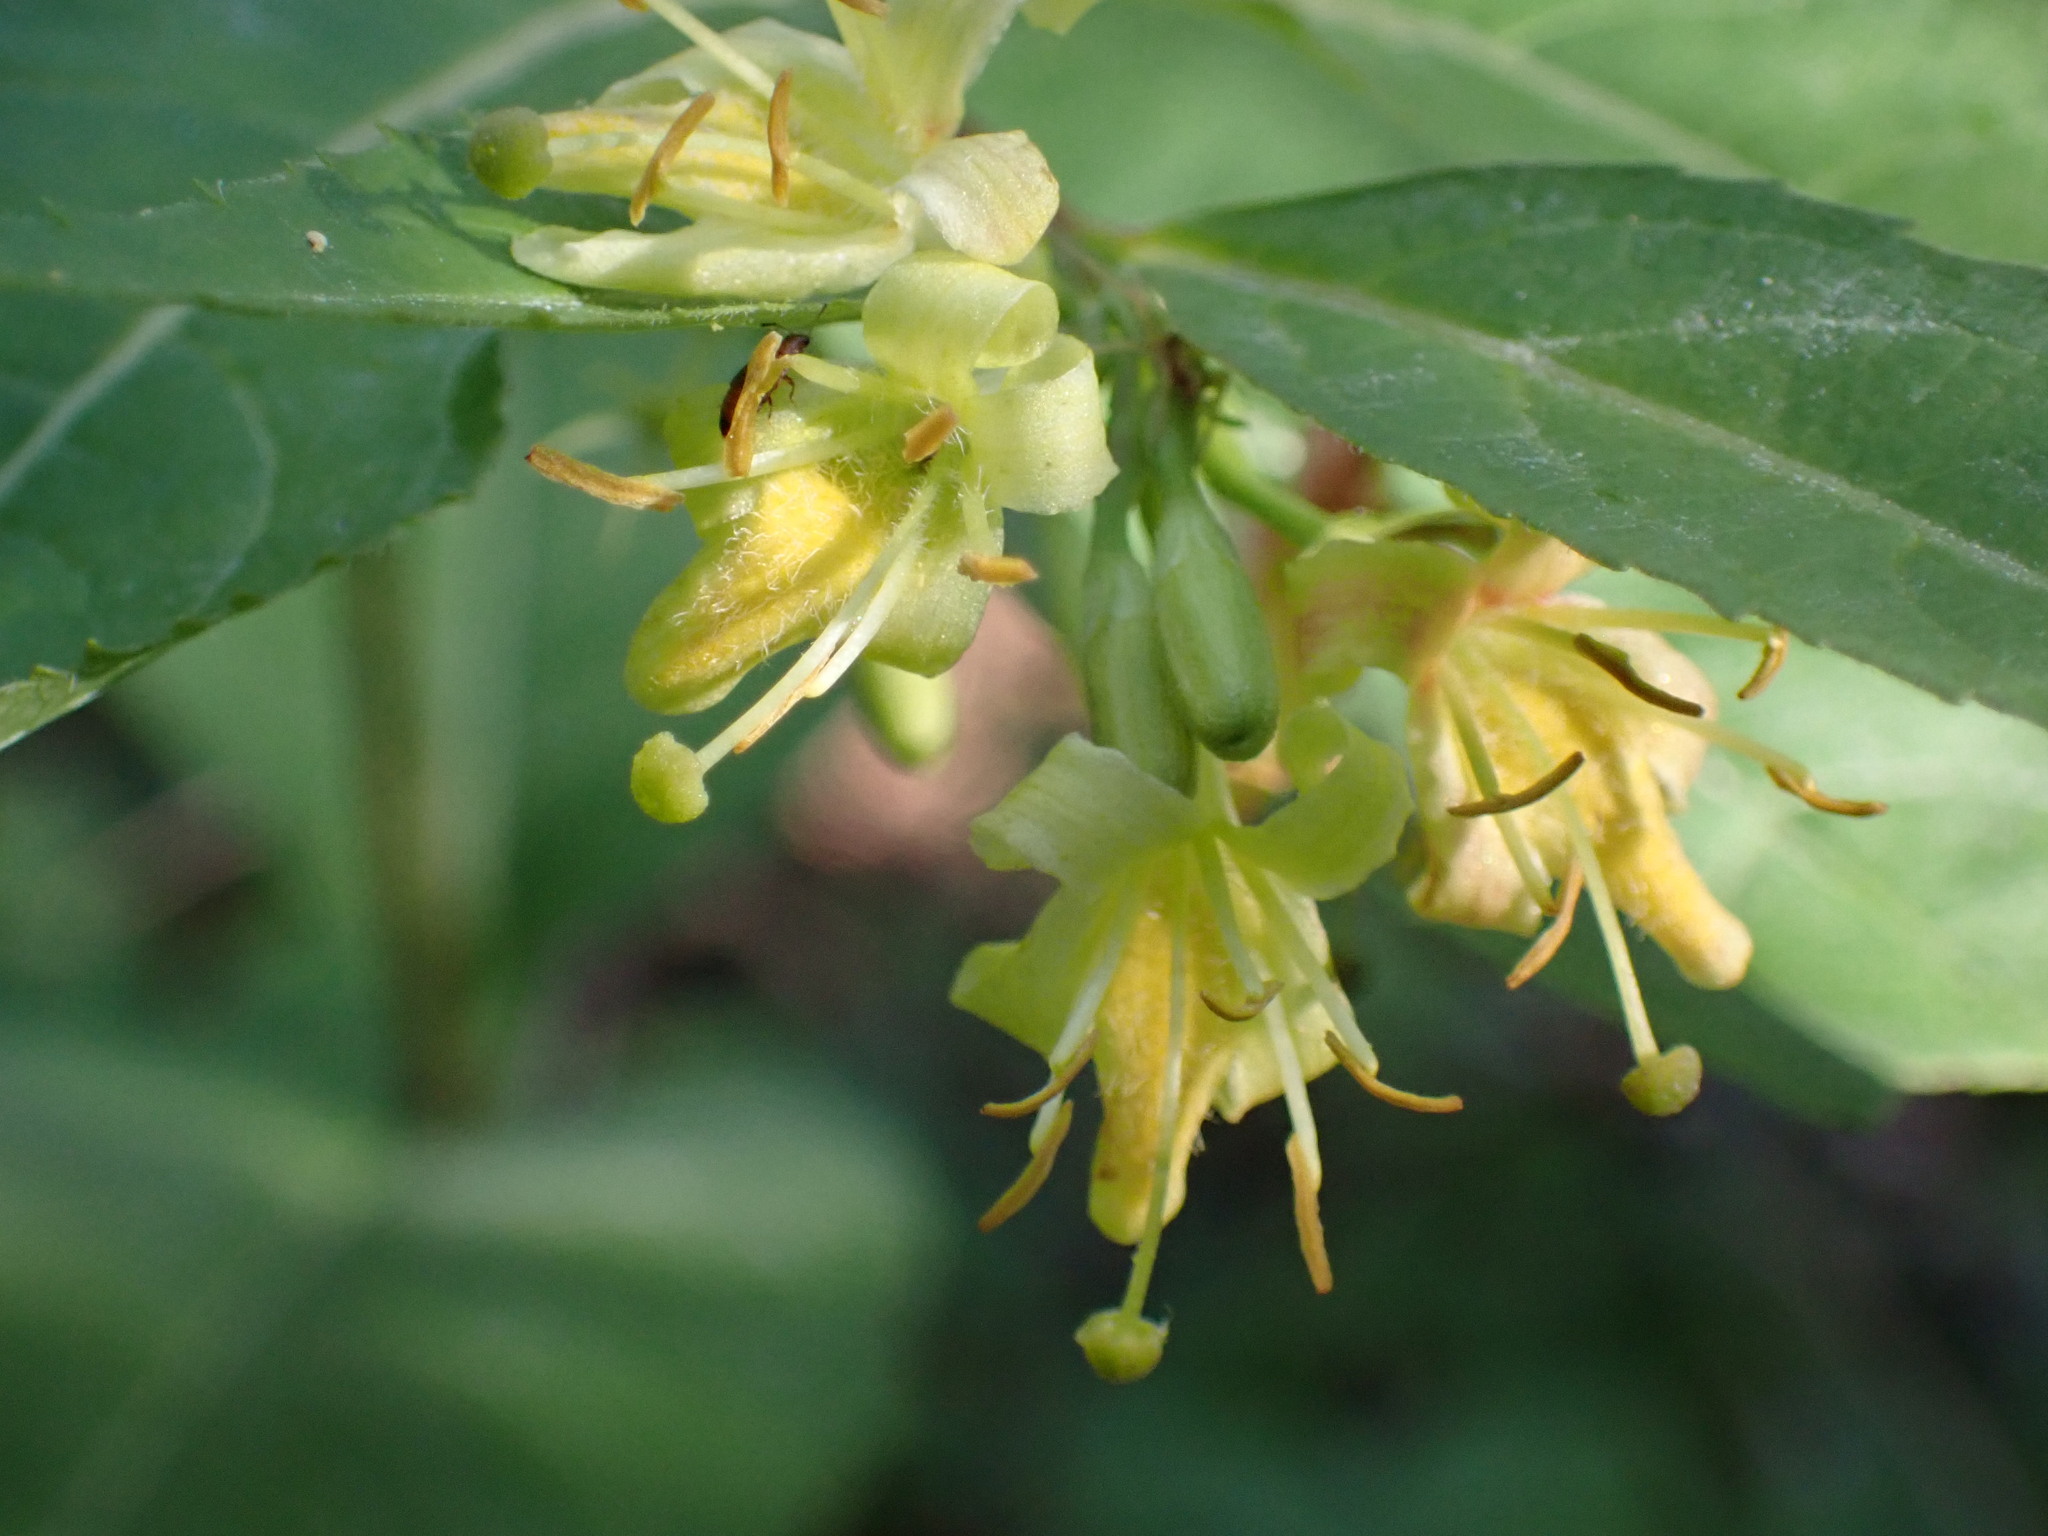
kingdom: Plantae
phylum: Tracheophyta
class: Magnoliopsida
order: Dipsacales
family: Caprifoliaceae
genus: Diervilla
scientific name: Diervilla lonicera
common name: Bush-honeysuckle
